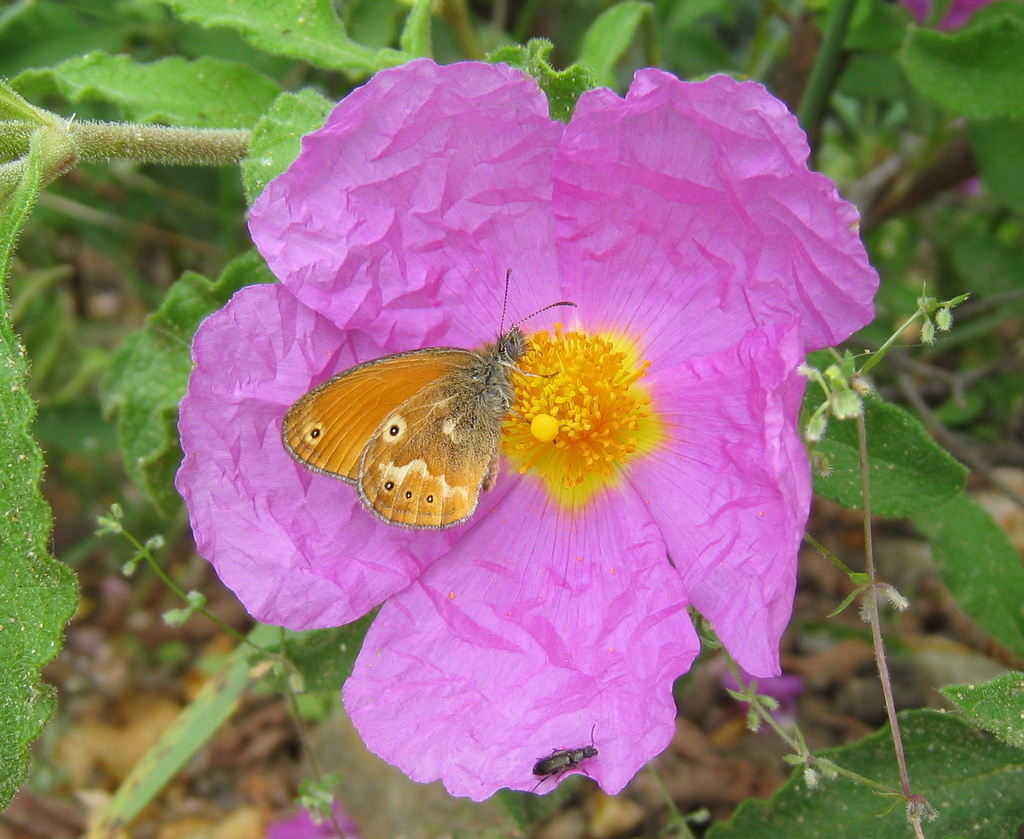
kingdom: Animalia
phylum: Arthropoda
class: Insecta
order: Lepidoptera
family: Nymphalidae
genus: Coenonympha
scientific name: Coenonympha corinna
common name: Corsican heath
